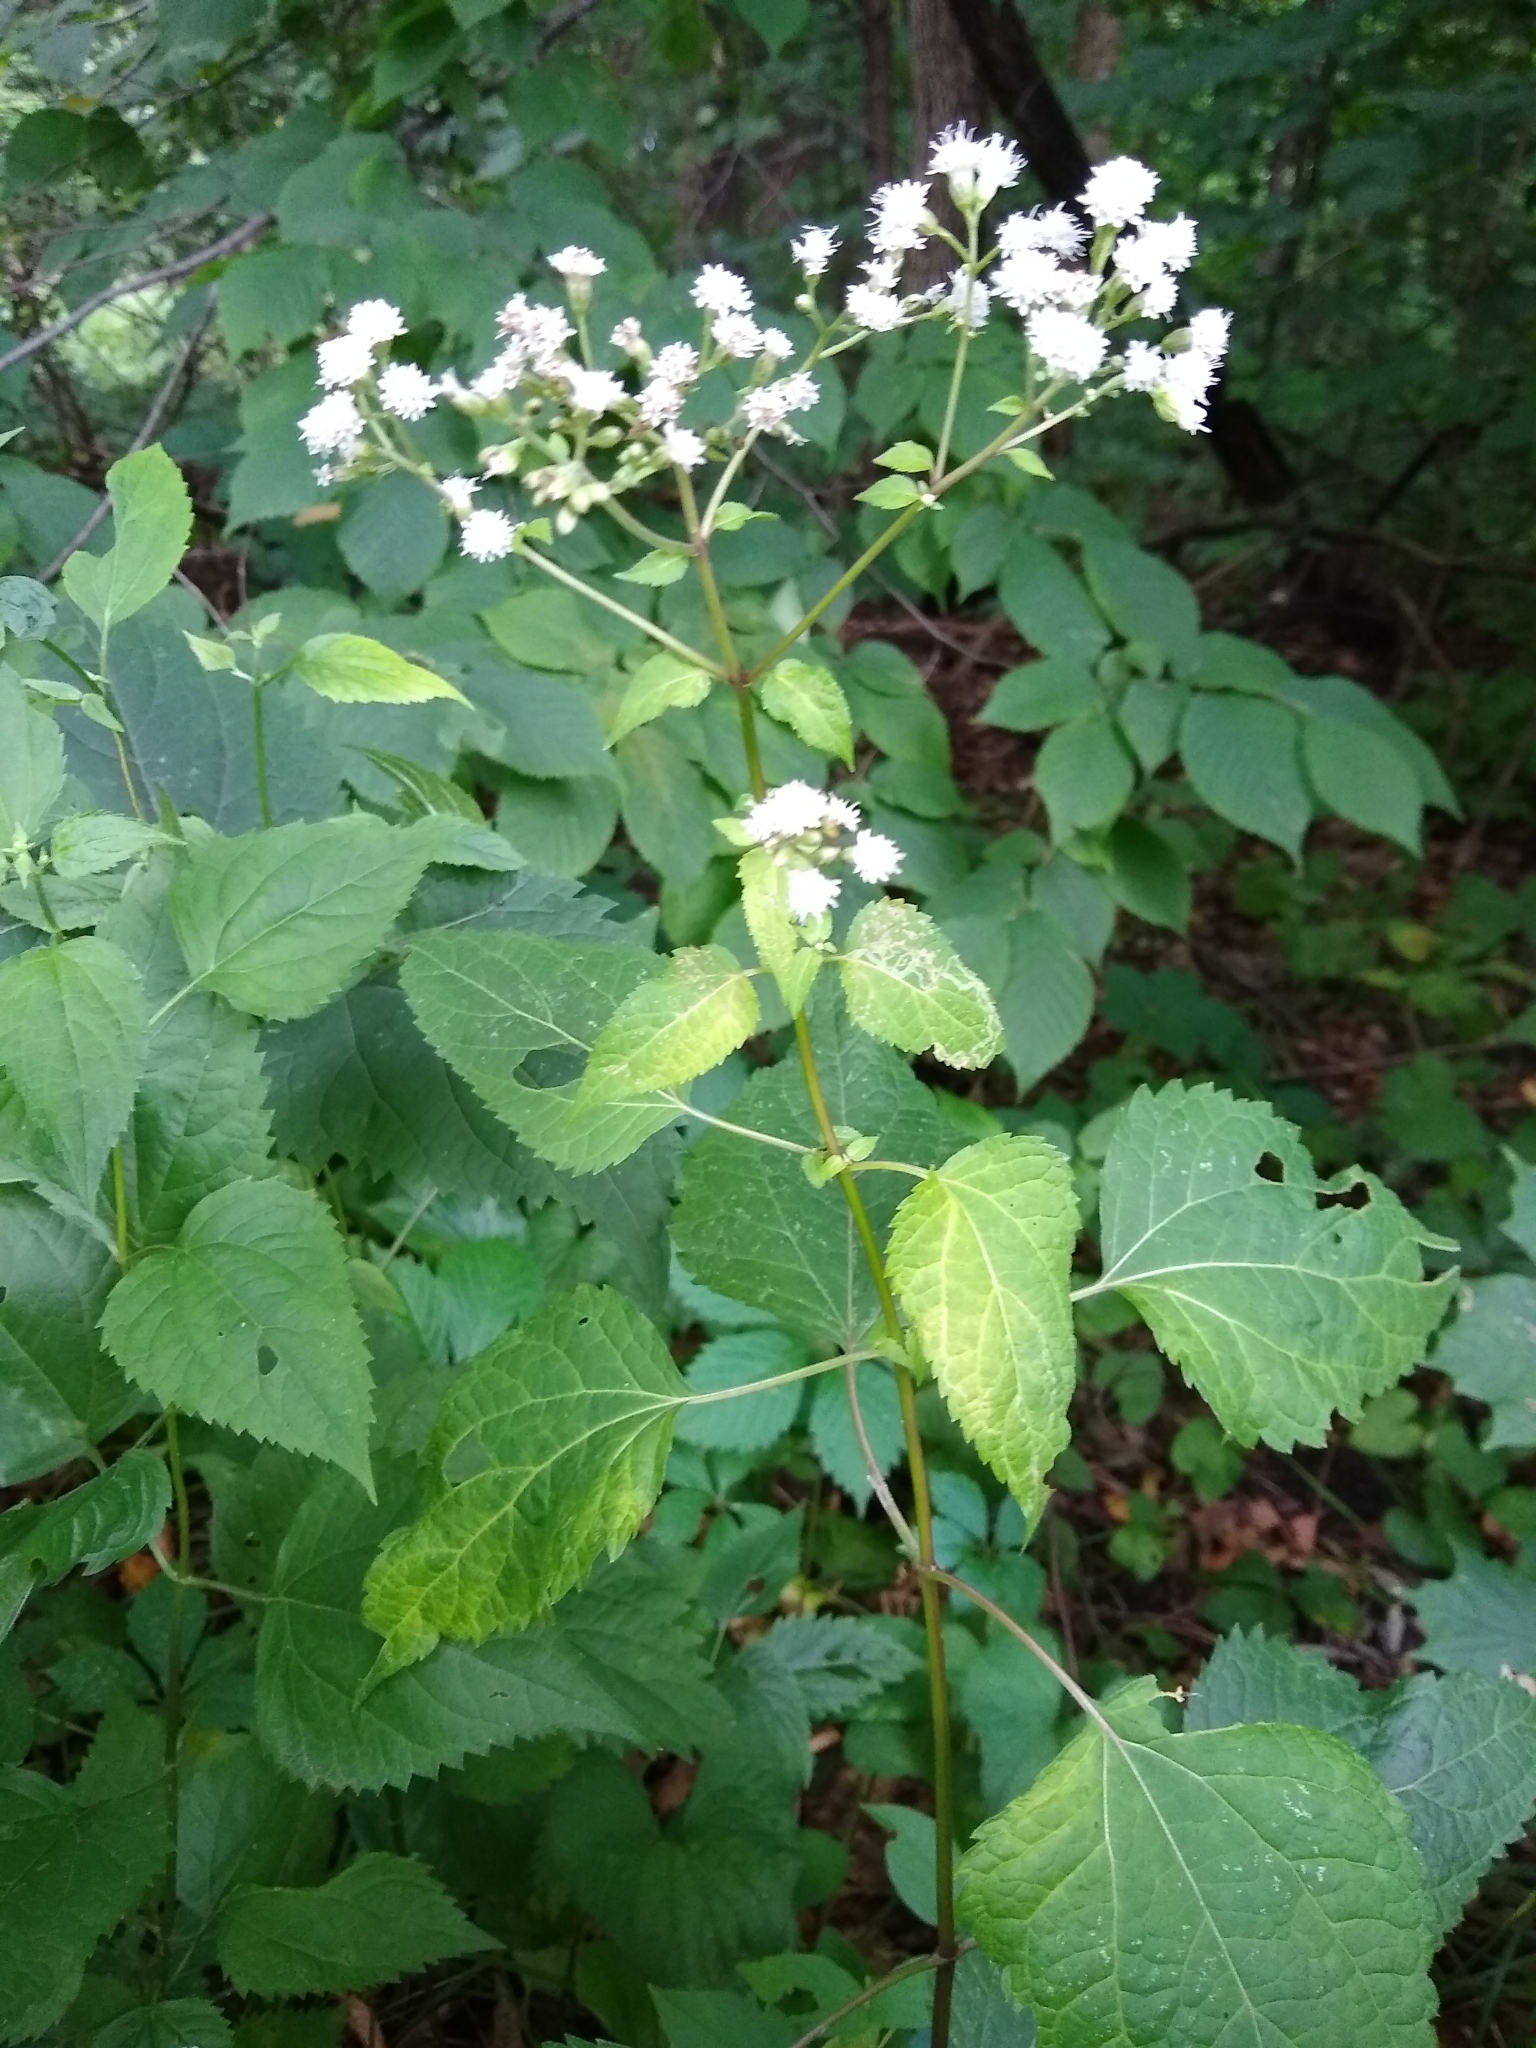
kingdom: Plantae
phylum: Tracheophyta
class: Magnoliopsida
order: Asterales
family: Asteraceae
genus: Ageratina
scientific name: Ageratina altissima
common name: White snakeroot
